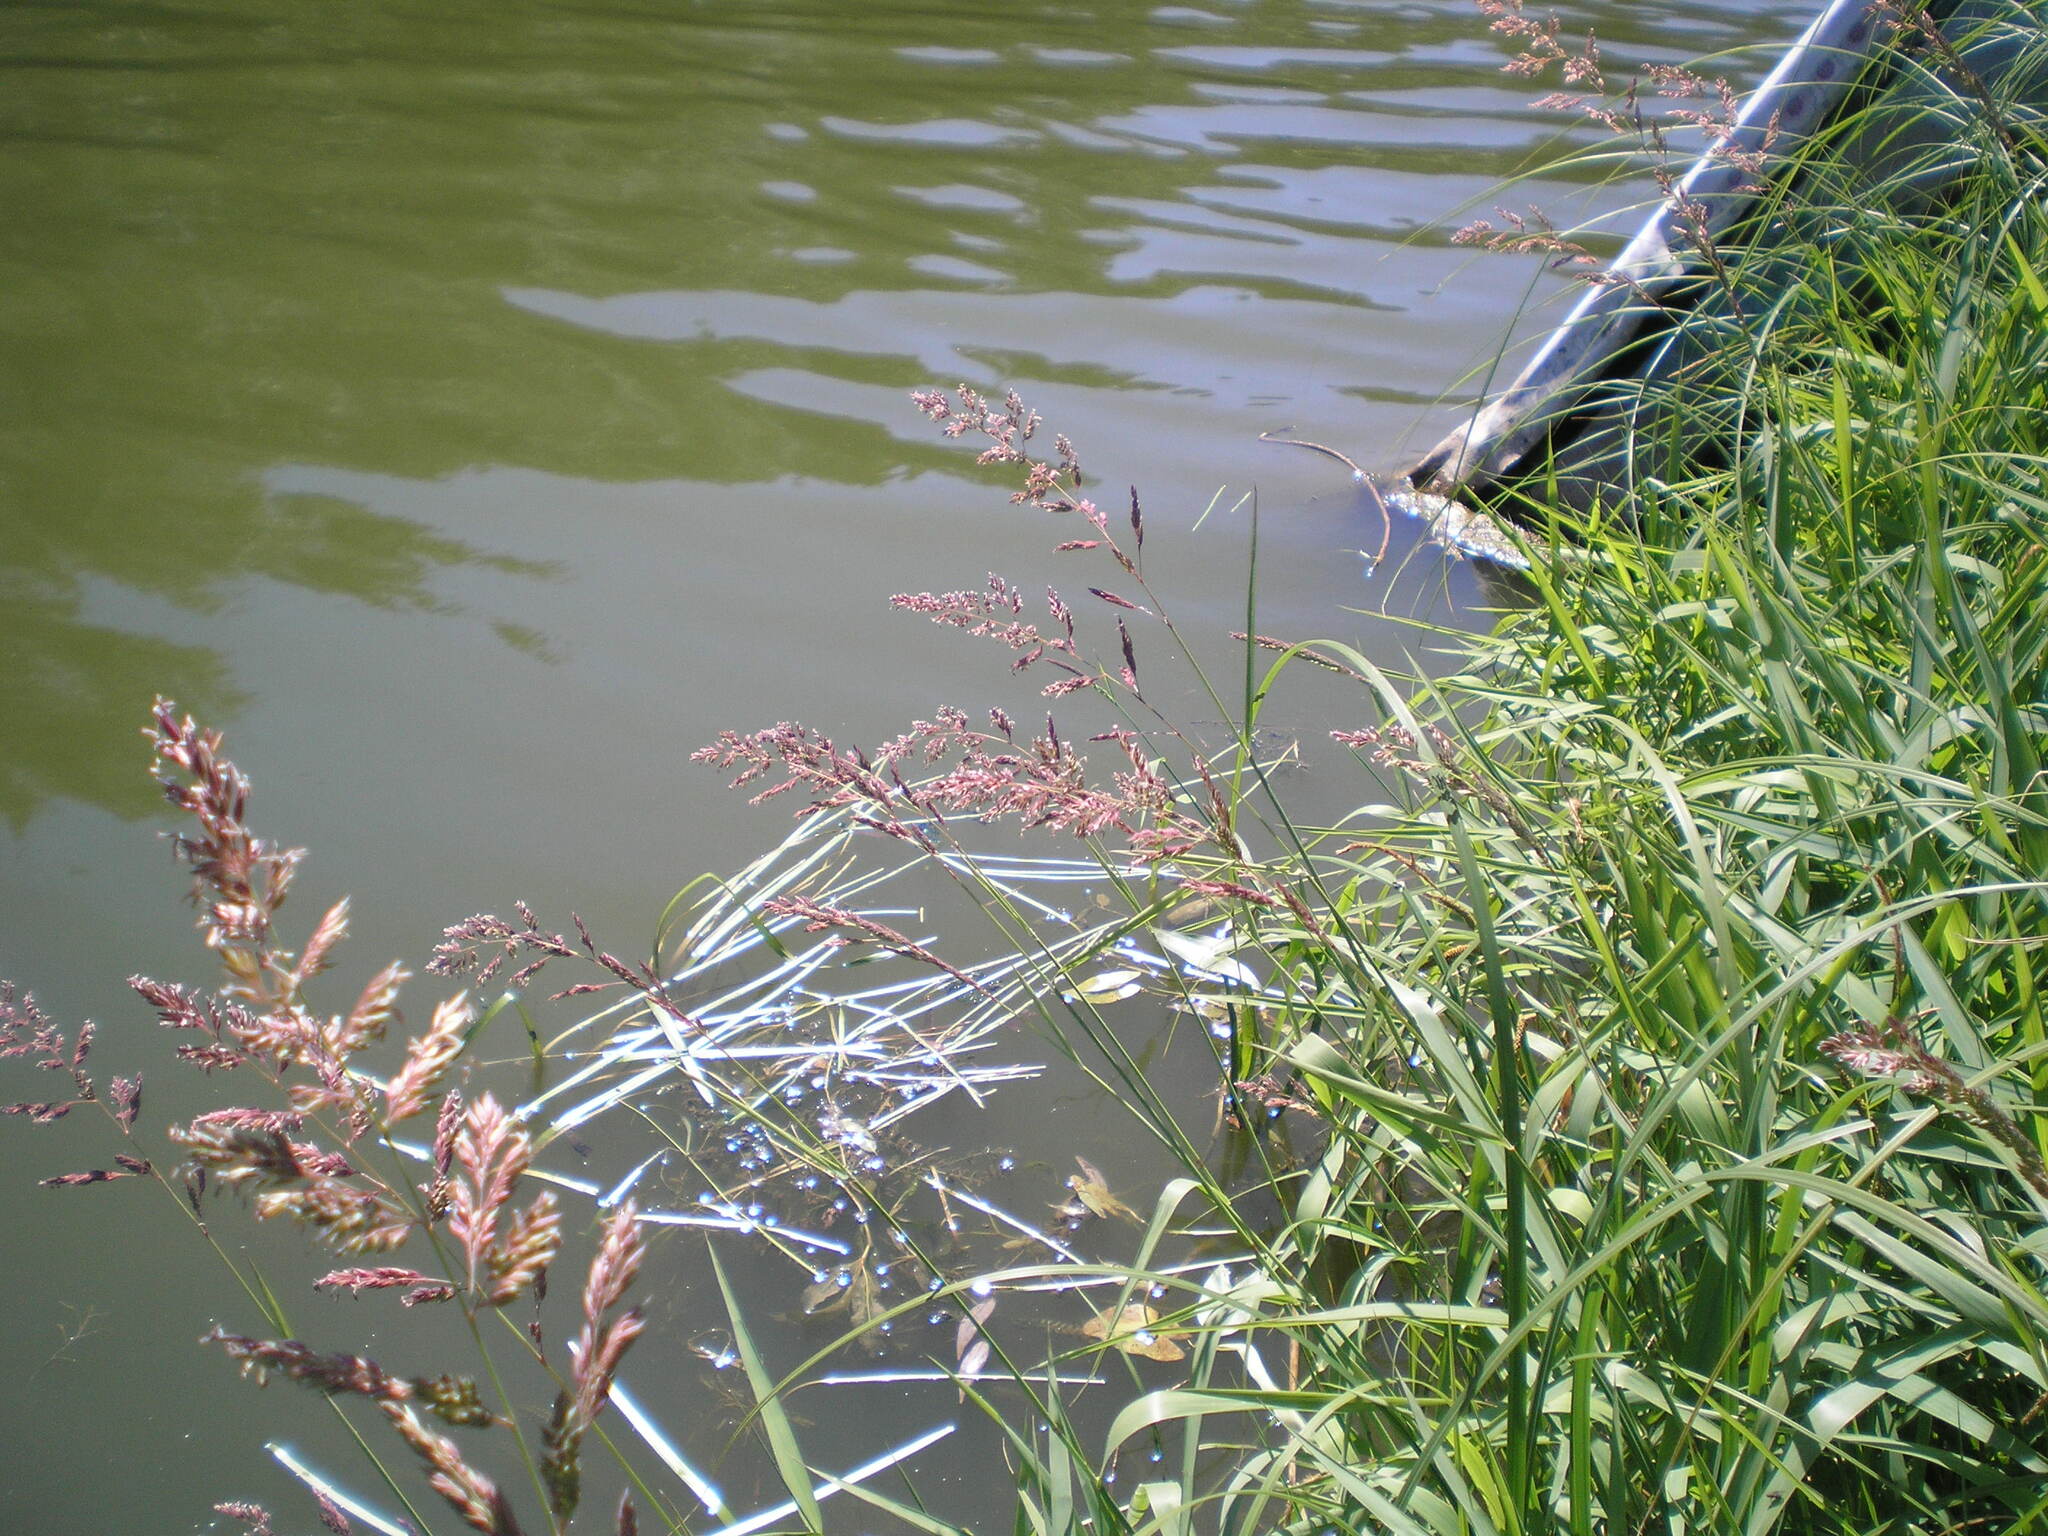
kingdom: Plantae
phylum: Tracheophyta
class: Liliopsida
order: Poales
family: Poaceae
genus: Phalaris
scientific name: Phalaris arundinacea
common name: Reed canary-grass
